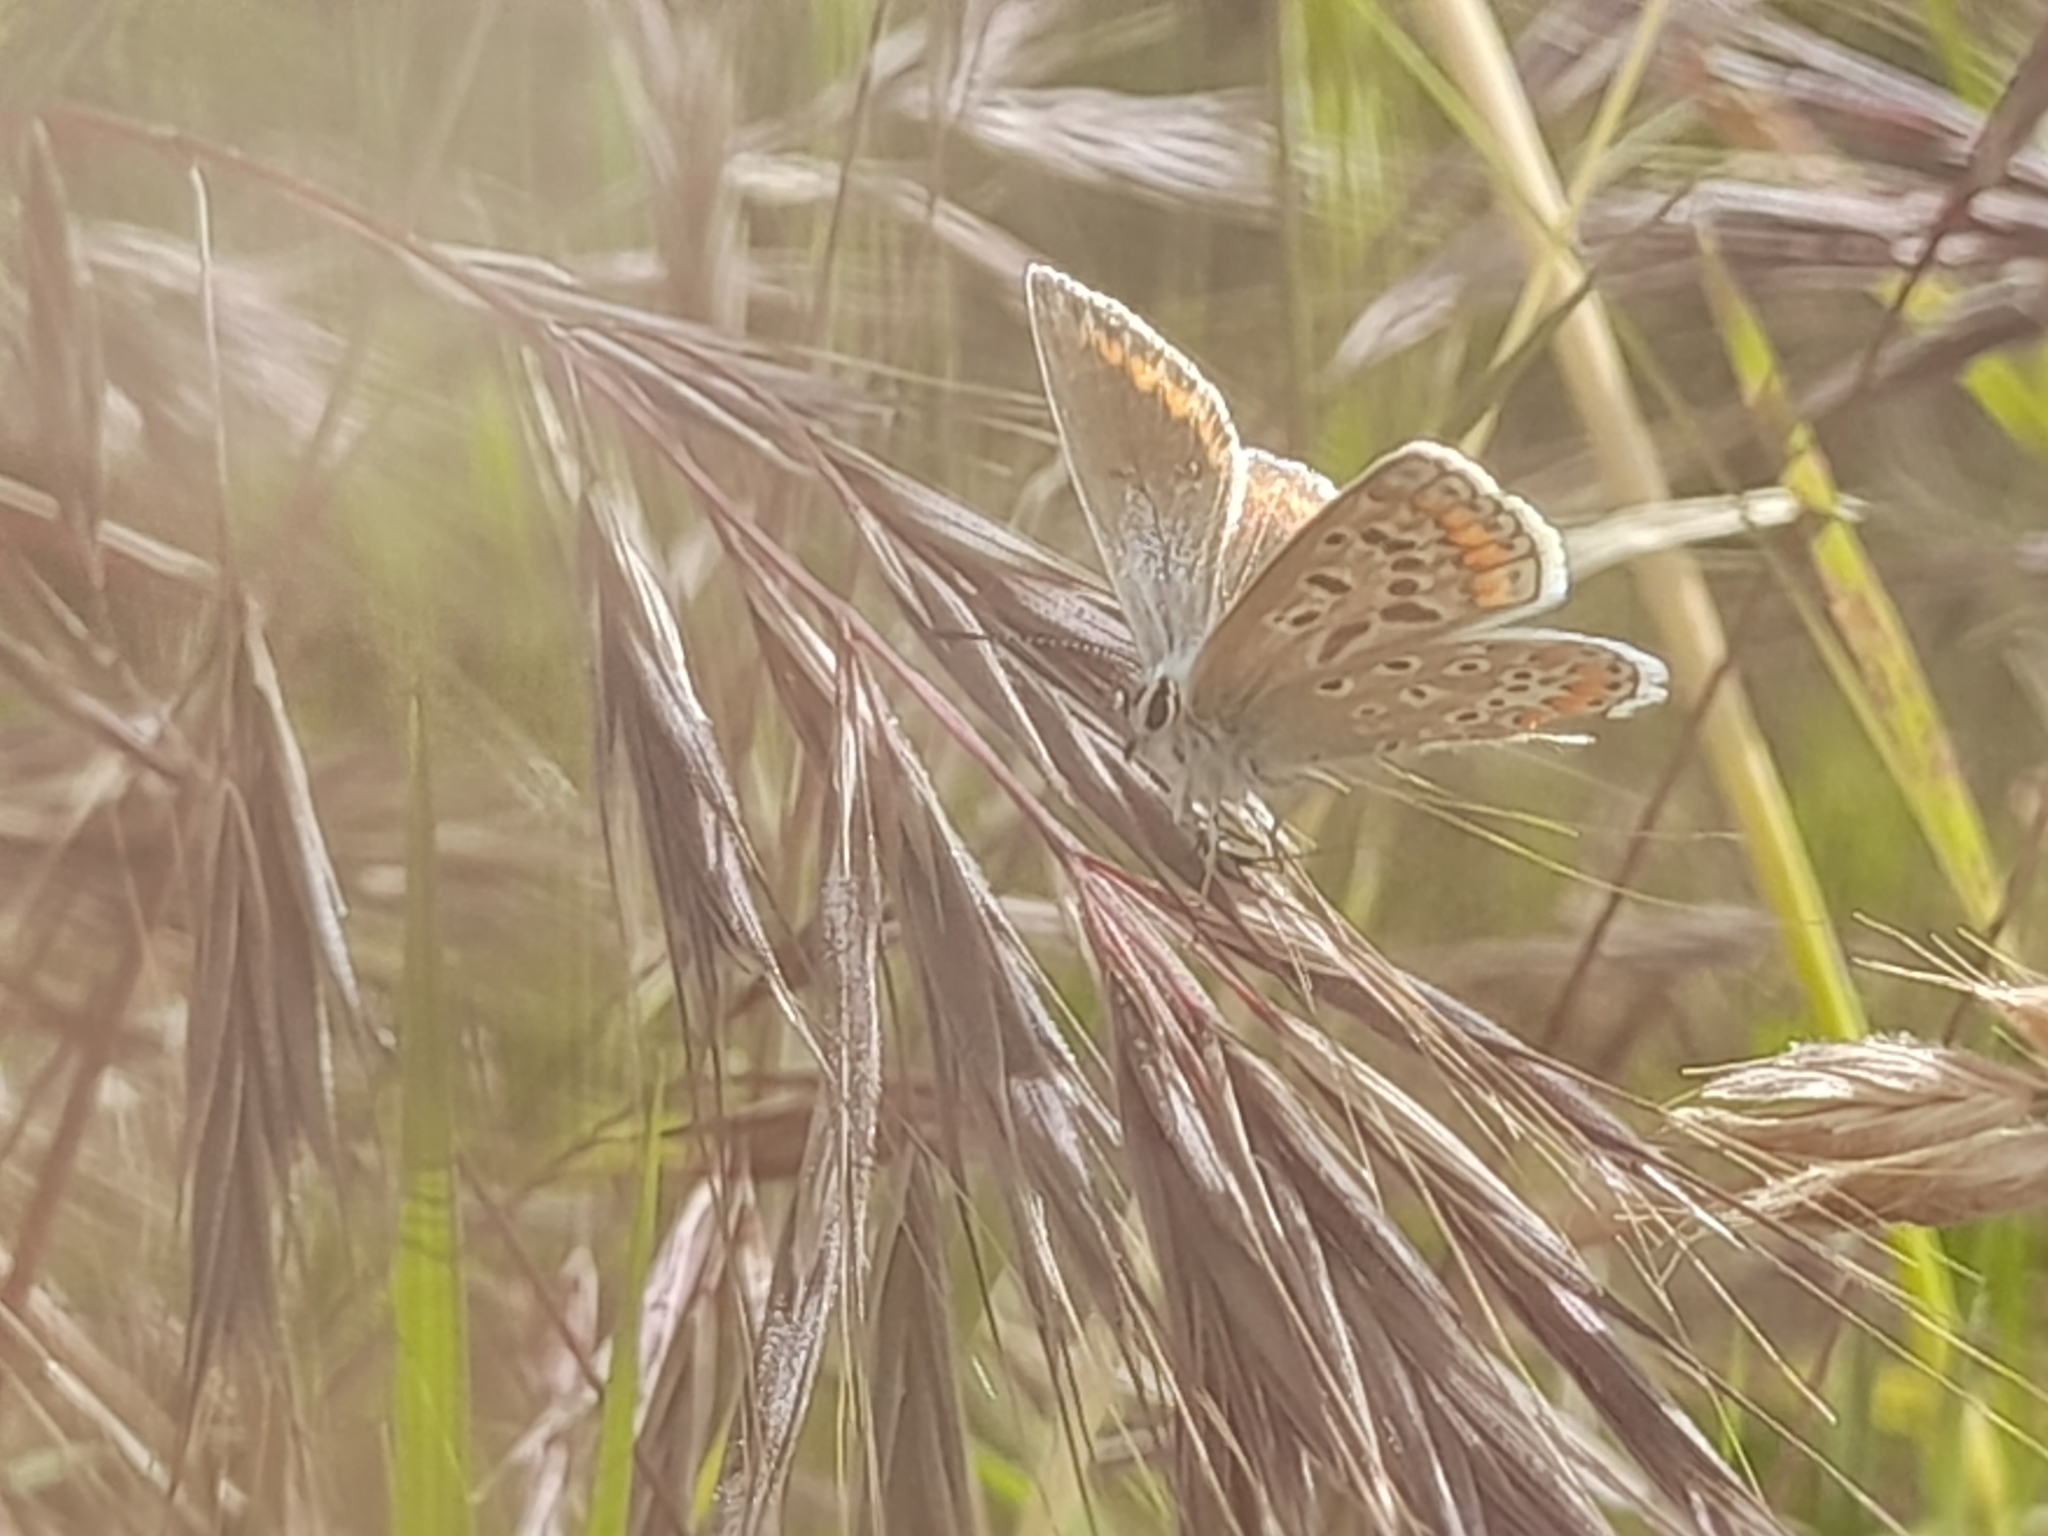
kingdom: Animalia
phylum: Arthropoda
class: Insecta
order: Lepidoptera
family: Lycaenidae
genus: Polyommatus
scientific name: Polyommatus icarus
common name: Common blue
